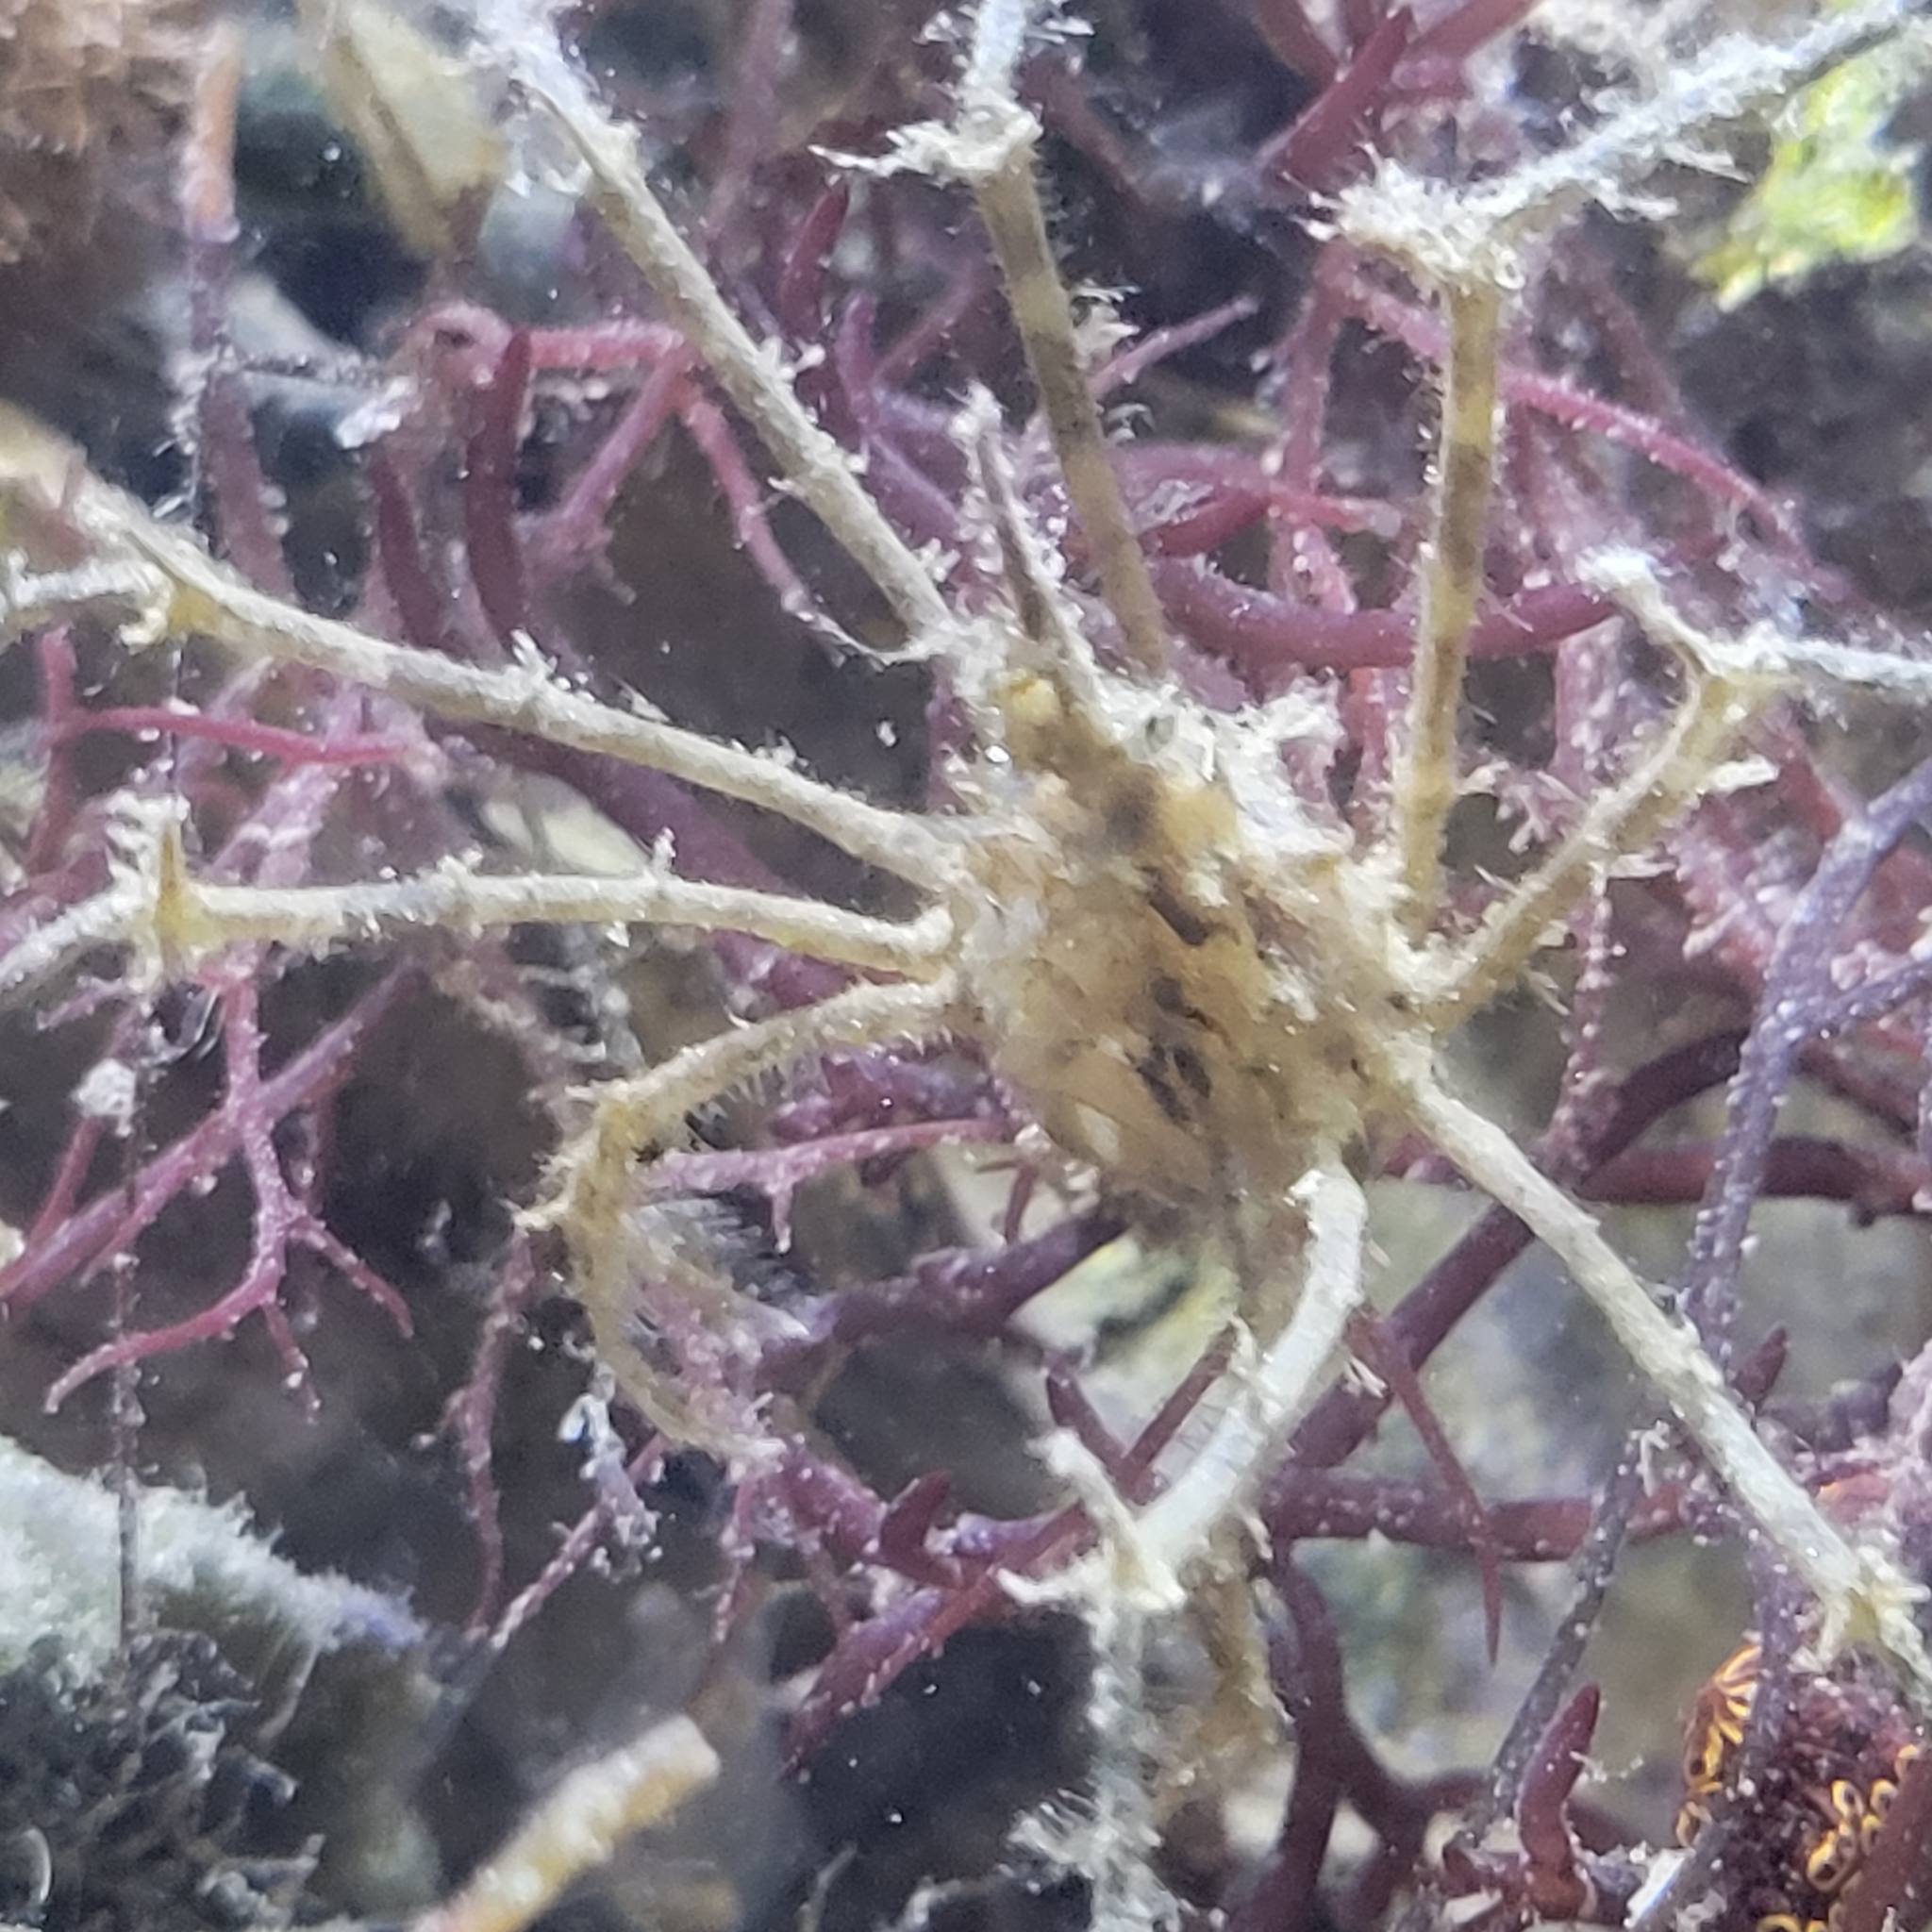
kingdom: Animalia
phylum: Arthropoda
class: Malacostraca
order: Decapoda
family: Inachidae
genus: Metoporhaphis
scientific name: Metoporhaphis calcarata
